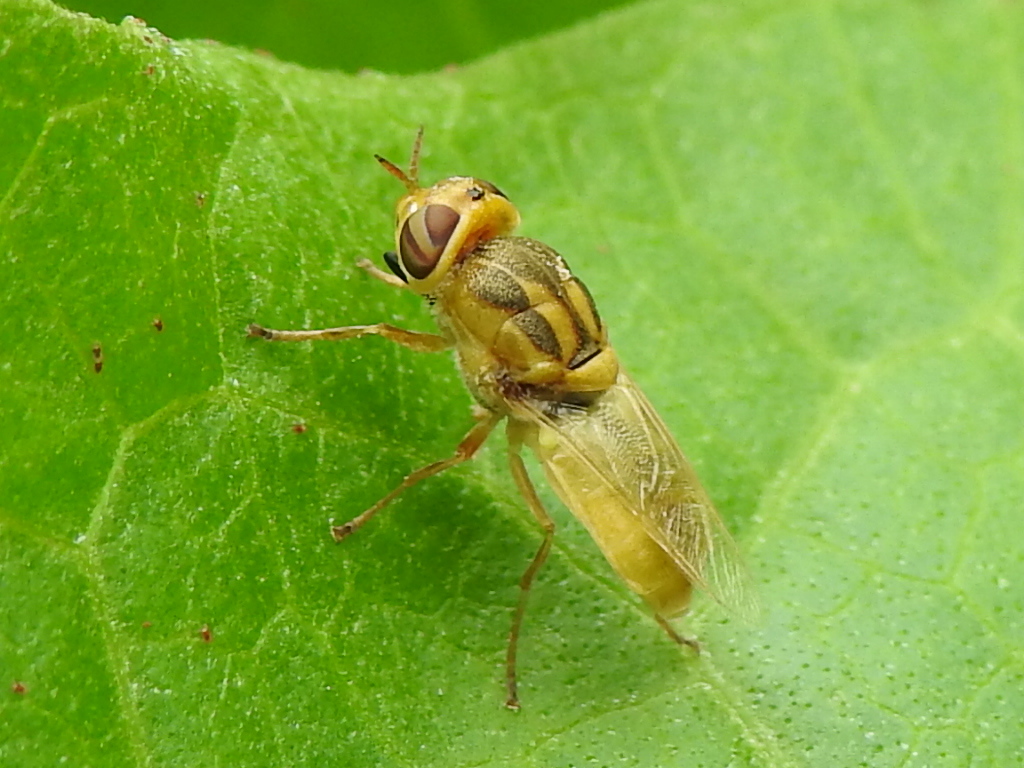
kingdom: Animalia
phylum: Arthropoda
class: Insecta
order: Diptera
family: Stratiomyidae
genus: Hedriodiscus
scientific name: Hedriodiscus trivittatus
